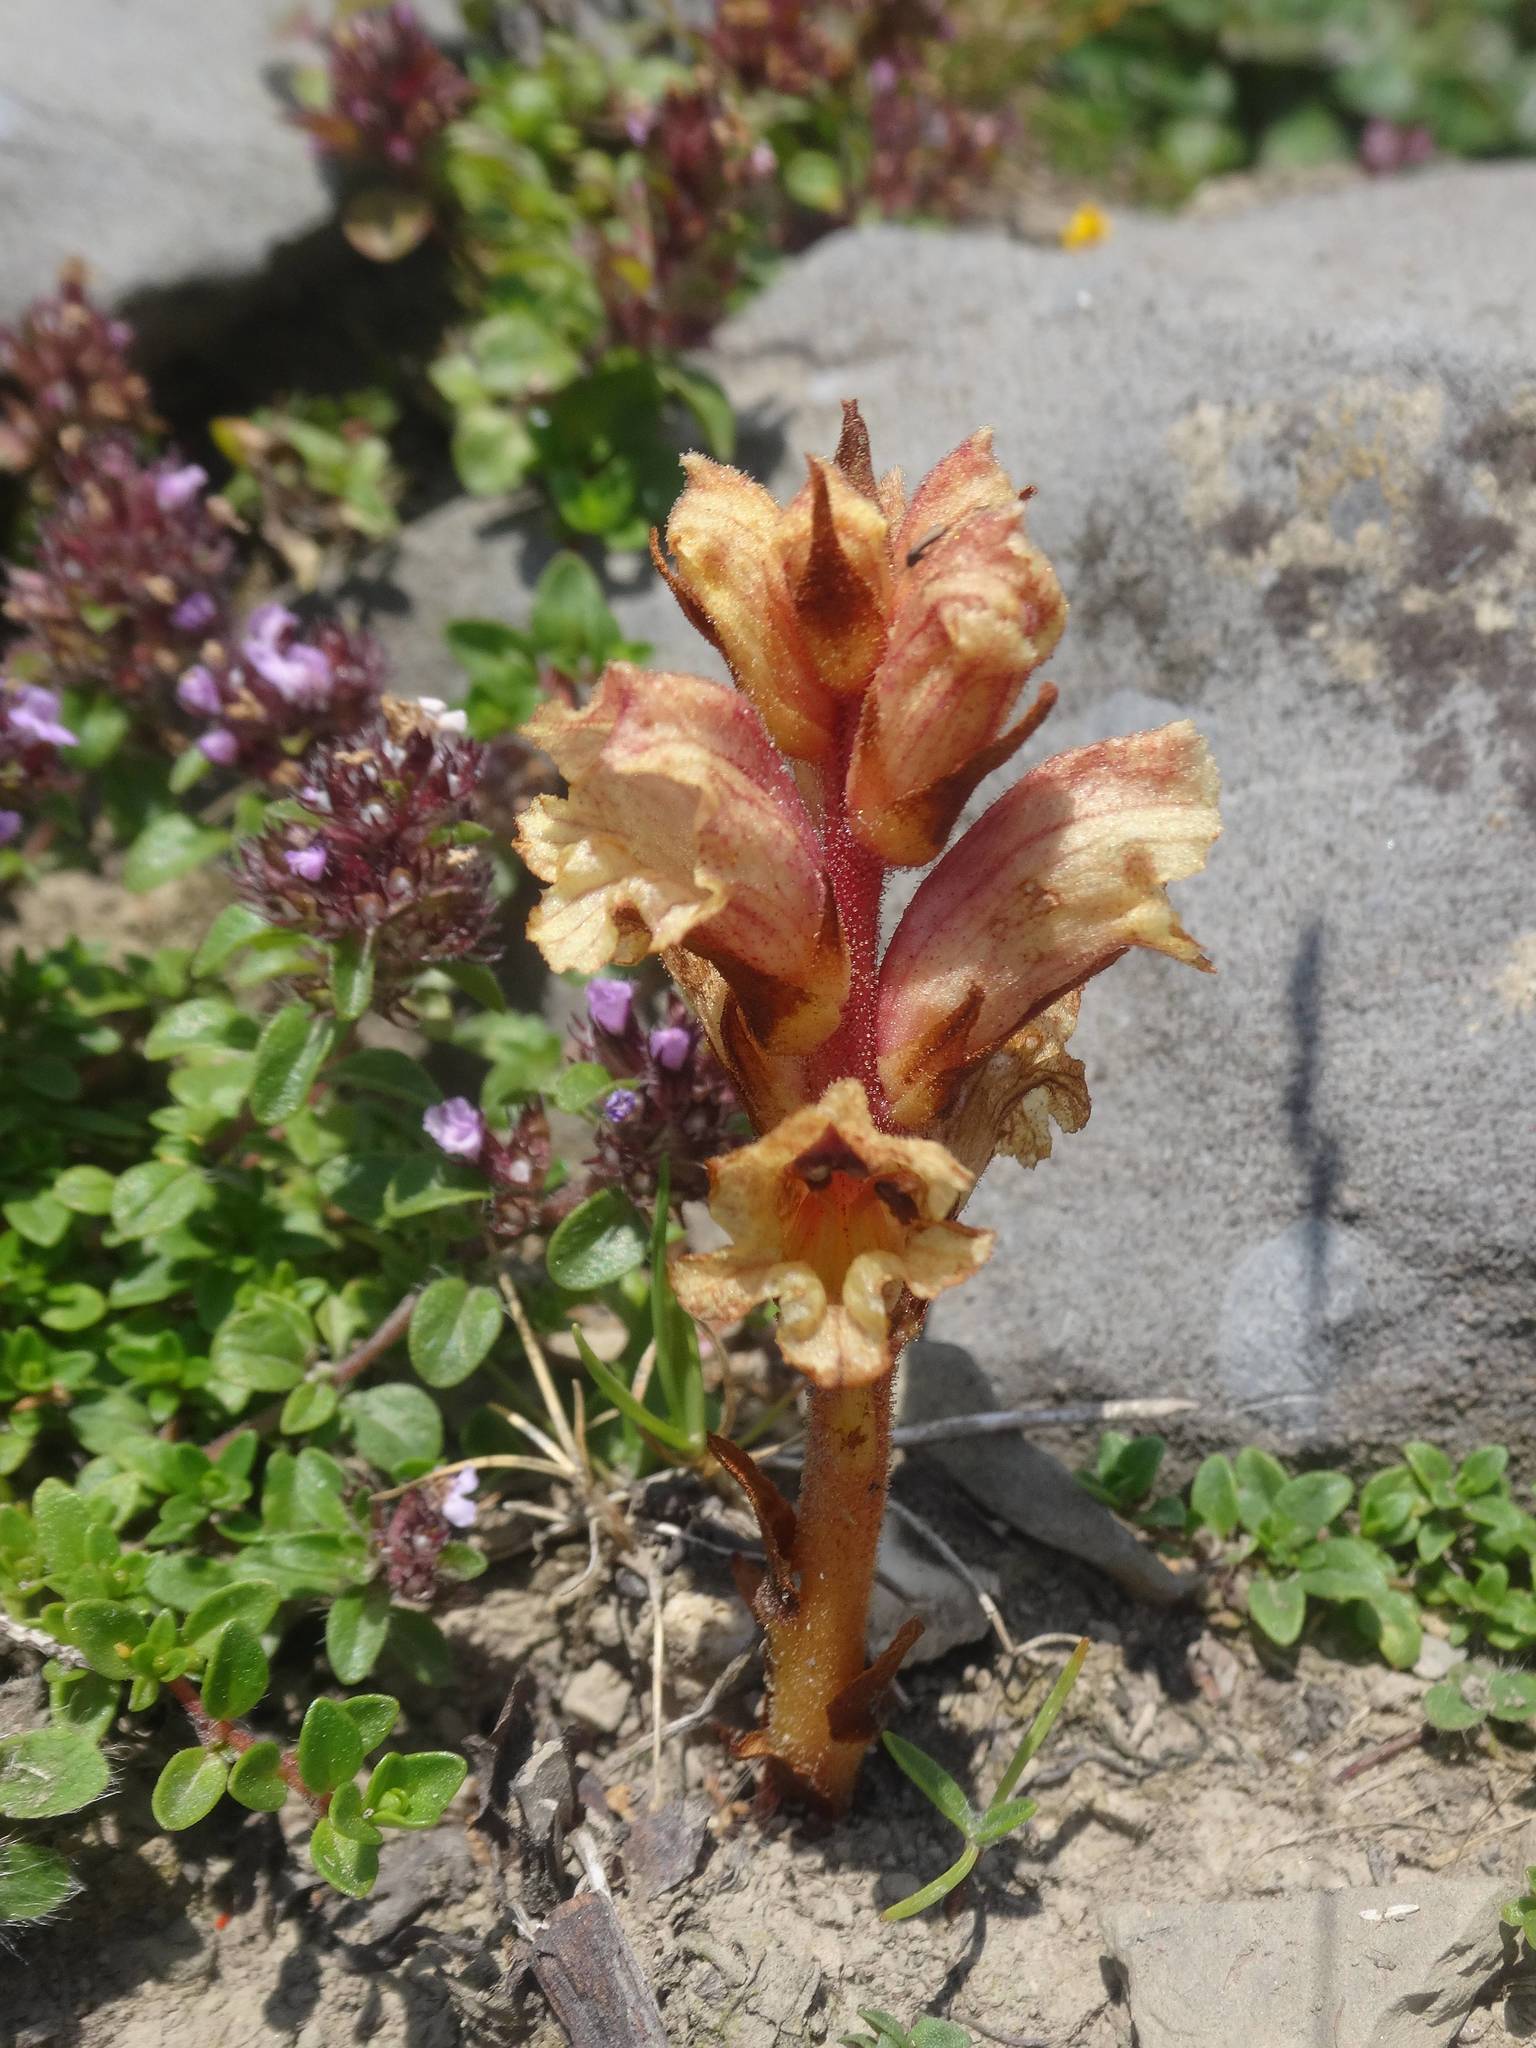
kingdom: Plantae
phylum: Tracheophyta
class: Magnoliopsida
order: Lamiales
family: Orobanchaceae
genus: Orobanche
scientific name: Orobanche alba
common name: Thyme broomrape
